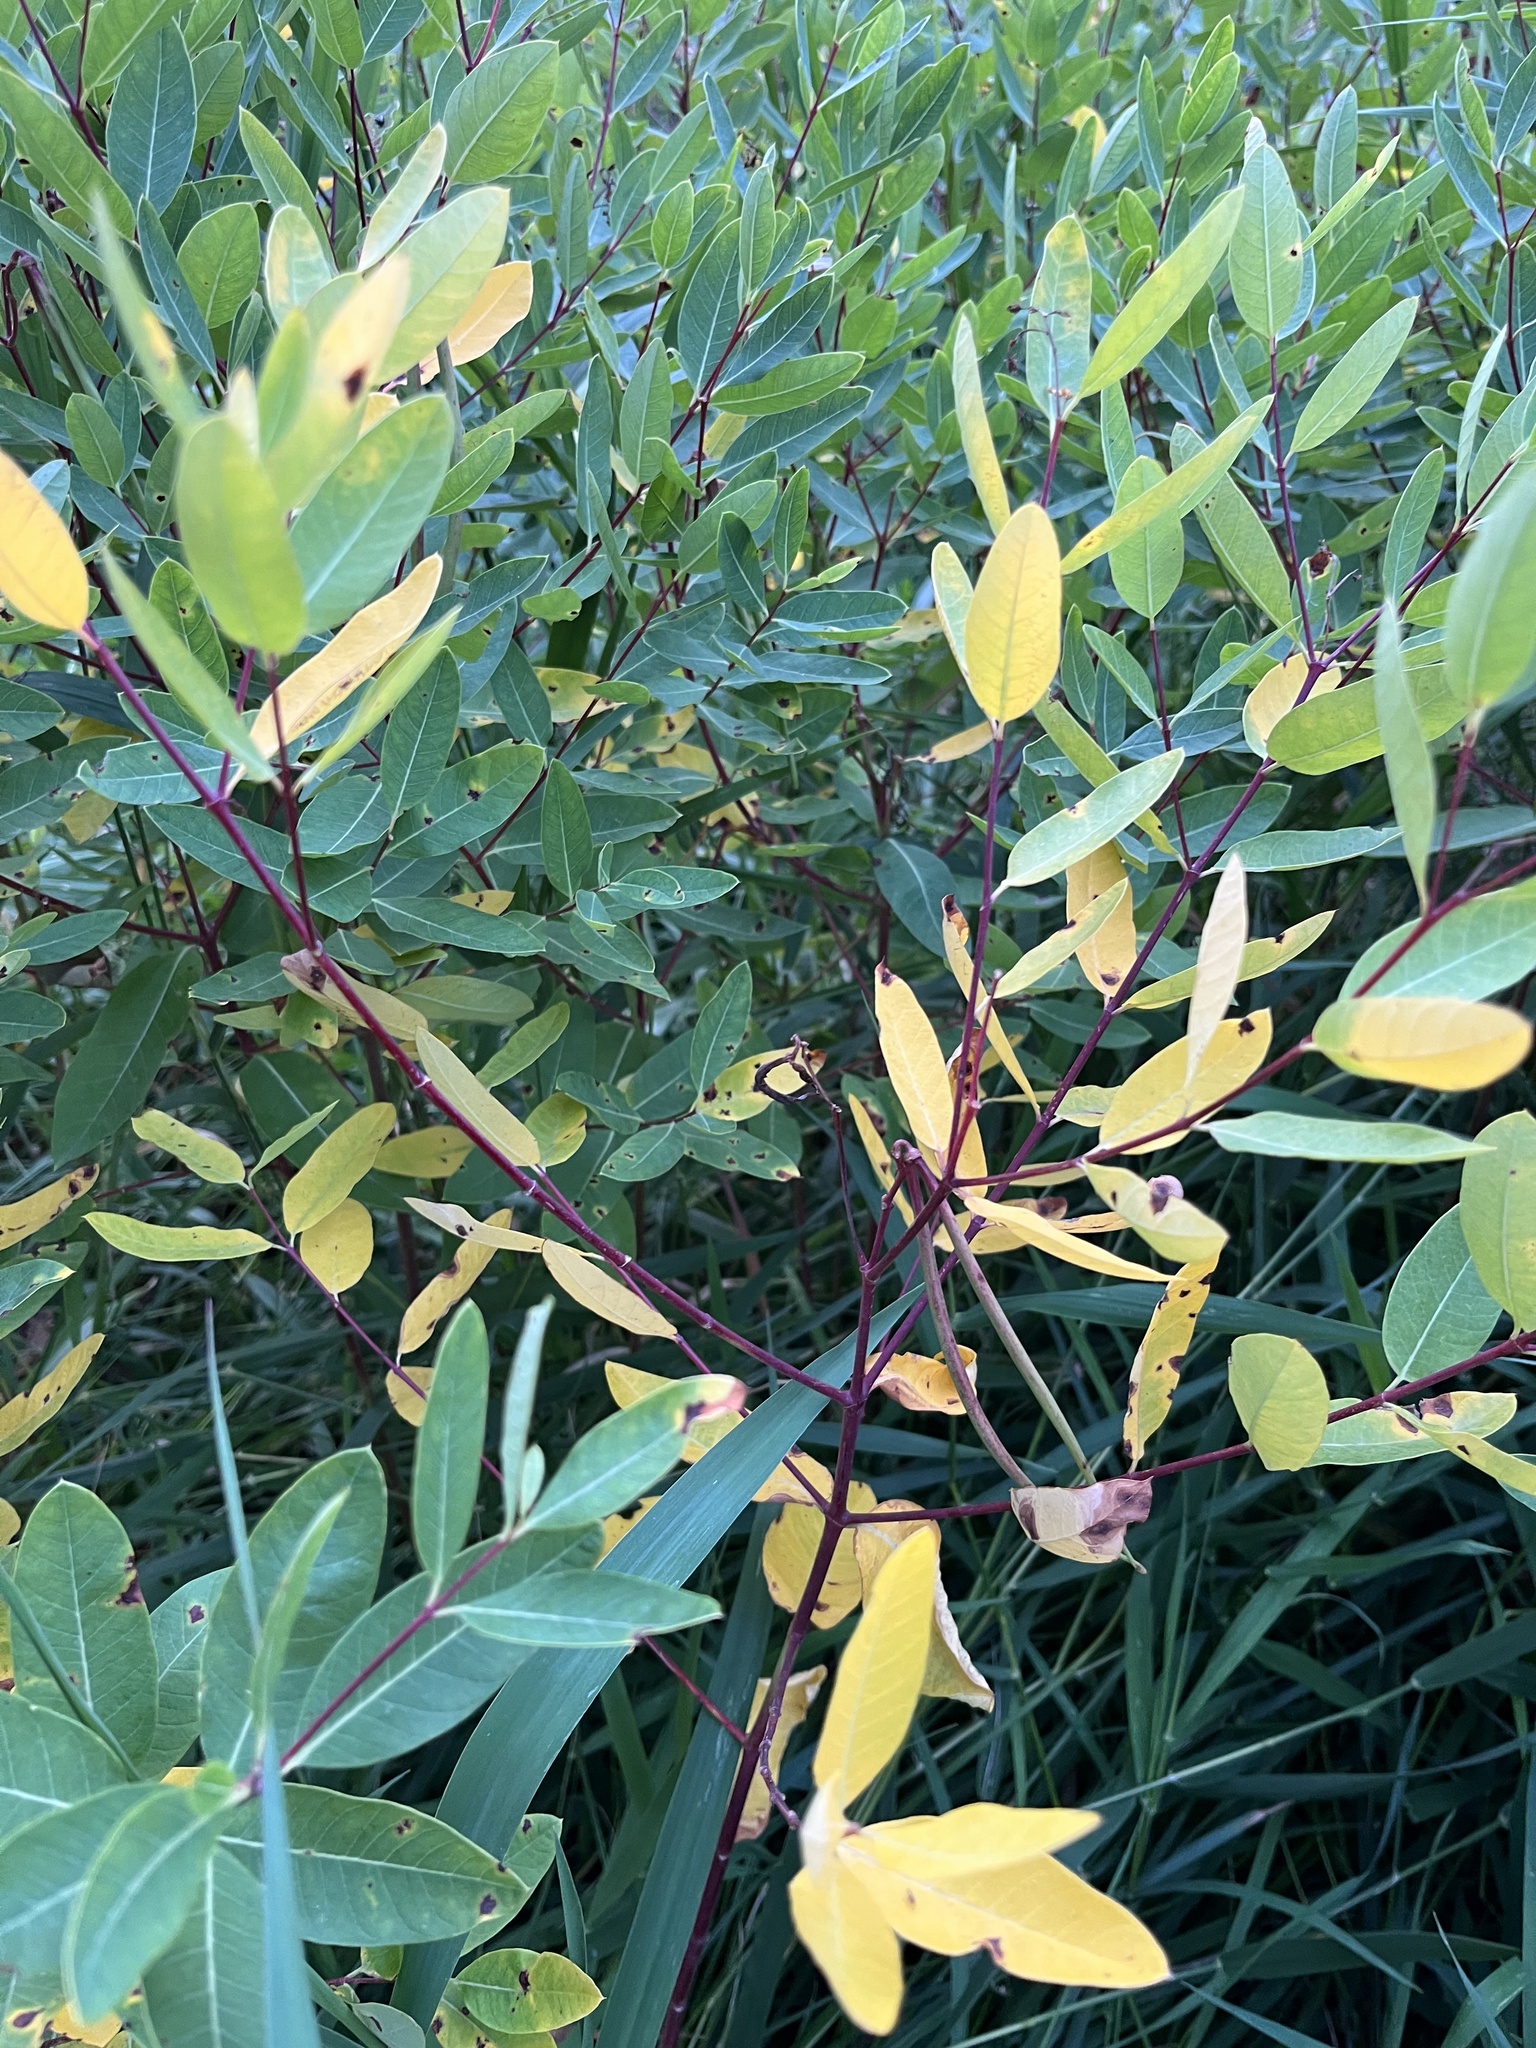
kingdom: Plantae
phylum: Tracheophyta
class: Magnoliopsida
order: Gentianales
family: Apocynaceae
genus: Apocynum
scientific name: Apocynum cannabinum
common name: Hemp dogbane
